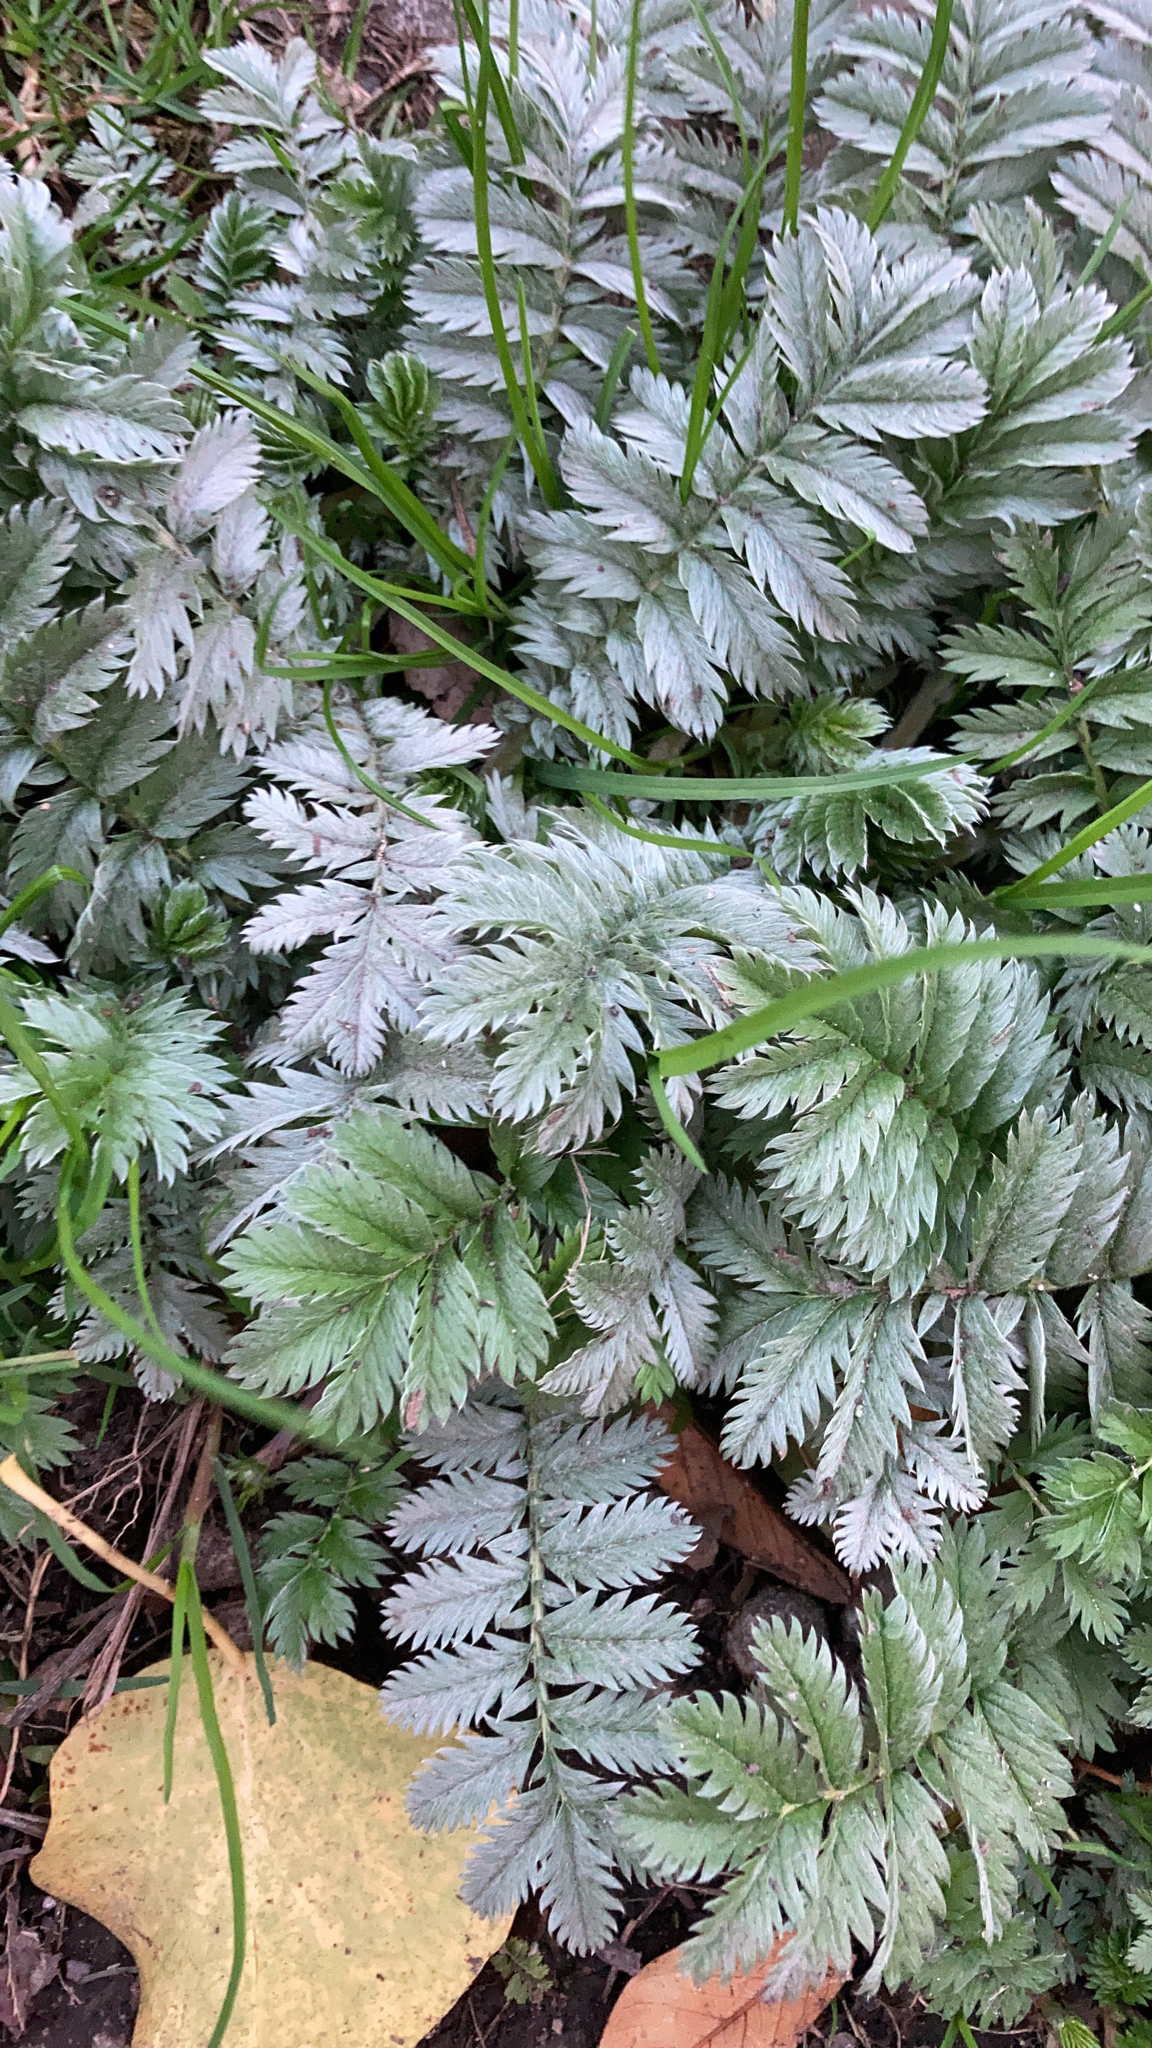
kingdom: Plantae
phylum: Tracheophyta
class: Magnoliopsida
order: Rosales
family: Rosaceae
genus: Argentina
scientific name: Argentina anserina
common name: Common silverweed
